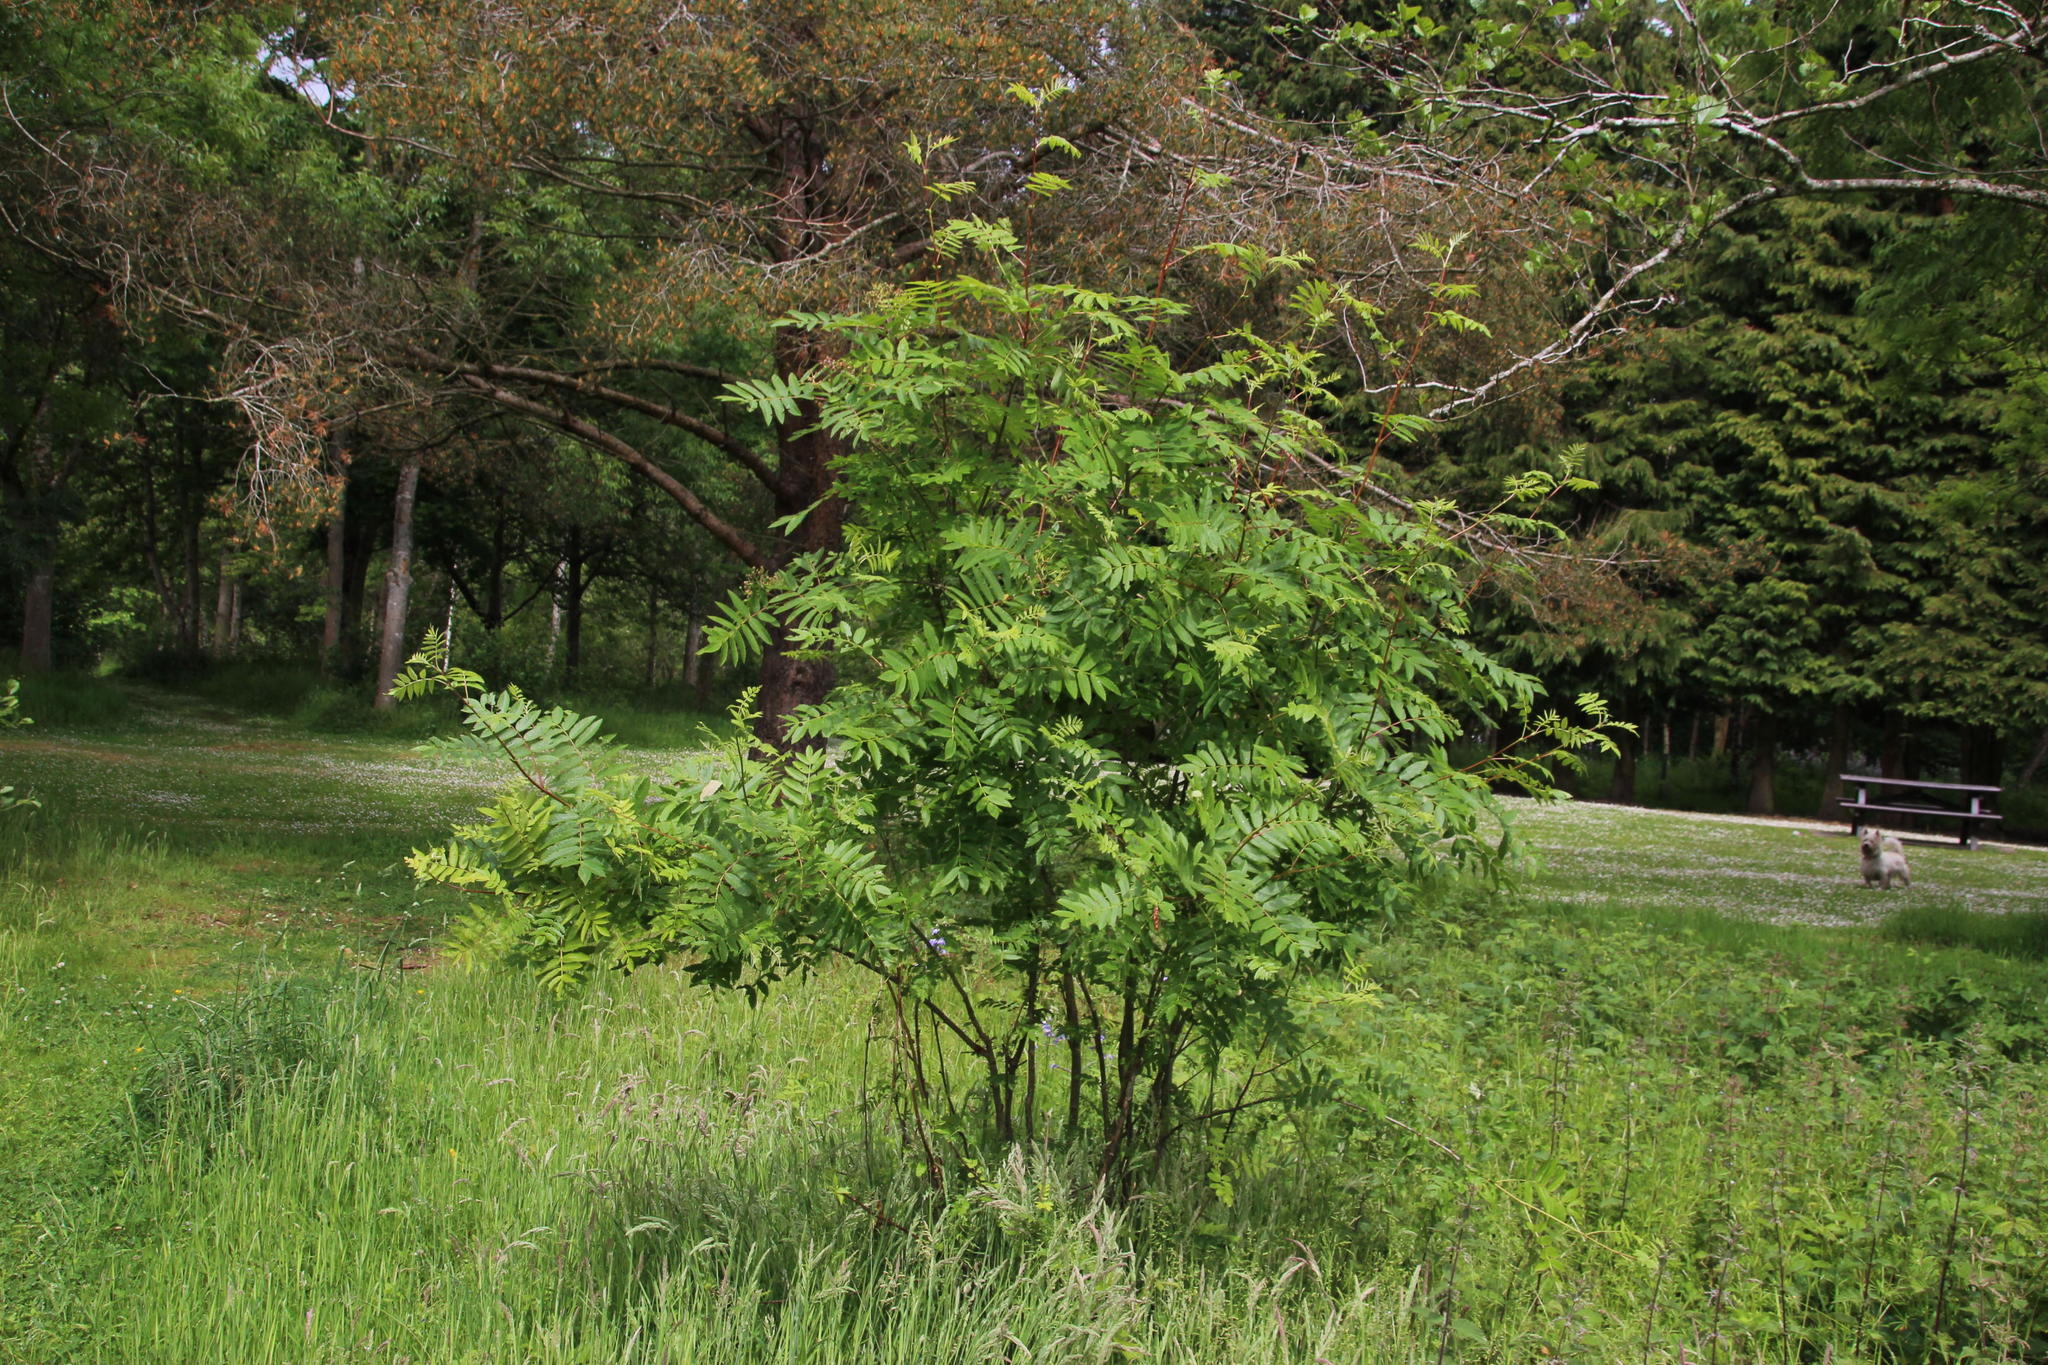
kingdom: Plantae
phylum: Tracheophyta
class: Magnoliopsida
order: Rosales
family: Rosaceae
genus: Sorbus
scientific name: Sorbus aucuparia
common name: Rowan
